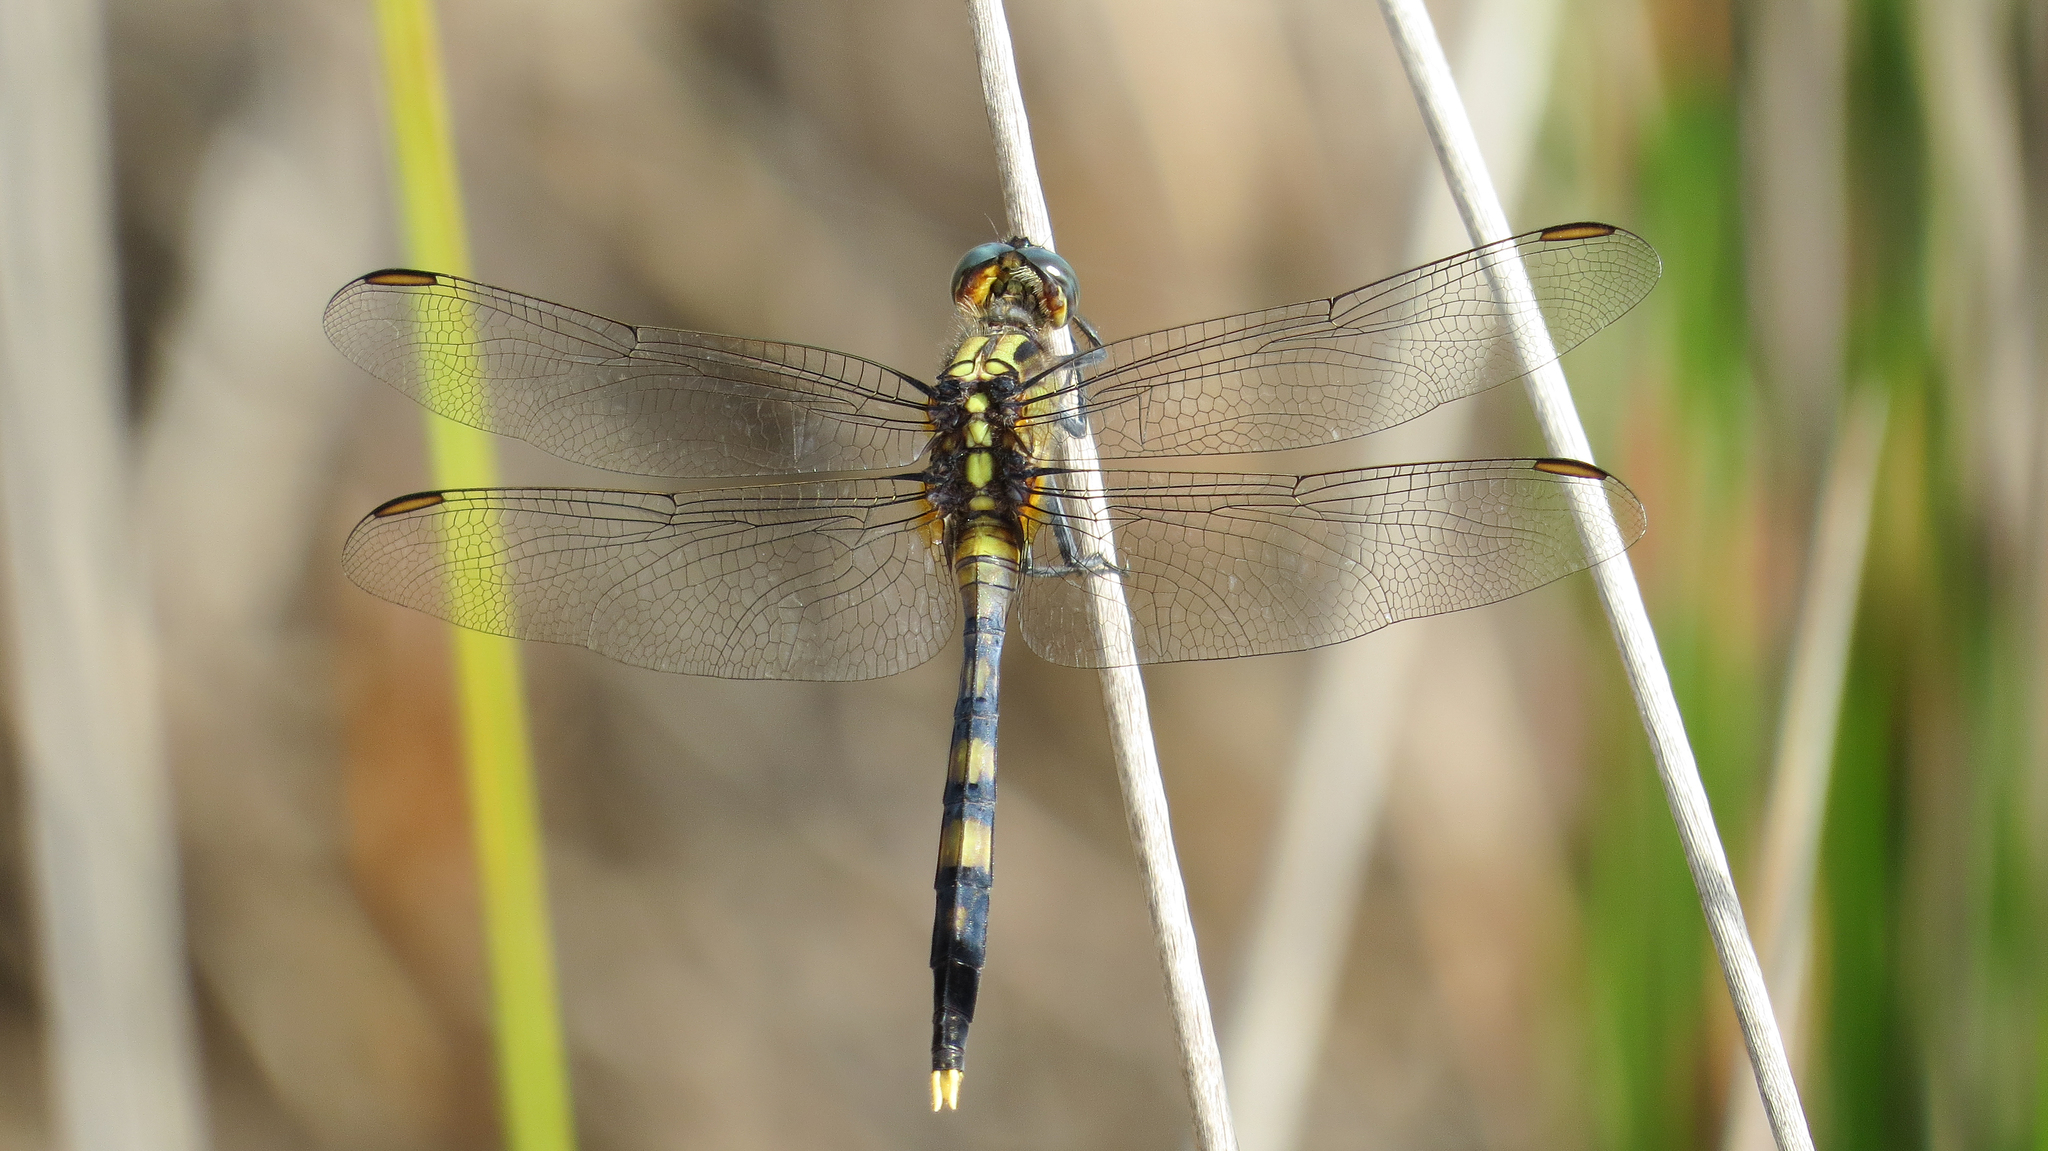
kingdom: Animalia
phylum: Arthropoda
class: Insecta
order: Odonata
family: Libellulidae
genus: Orthetrum
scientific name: Orthetrum boumiera
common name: Brownwater skimmer
